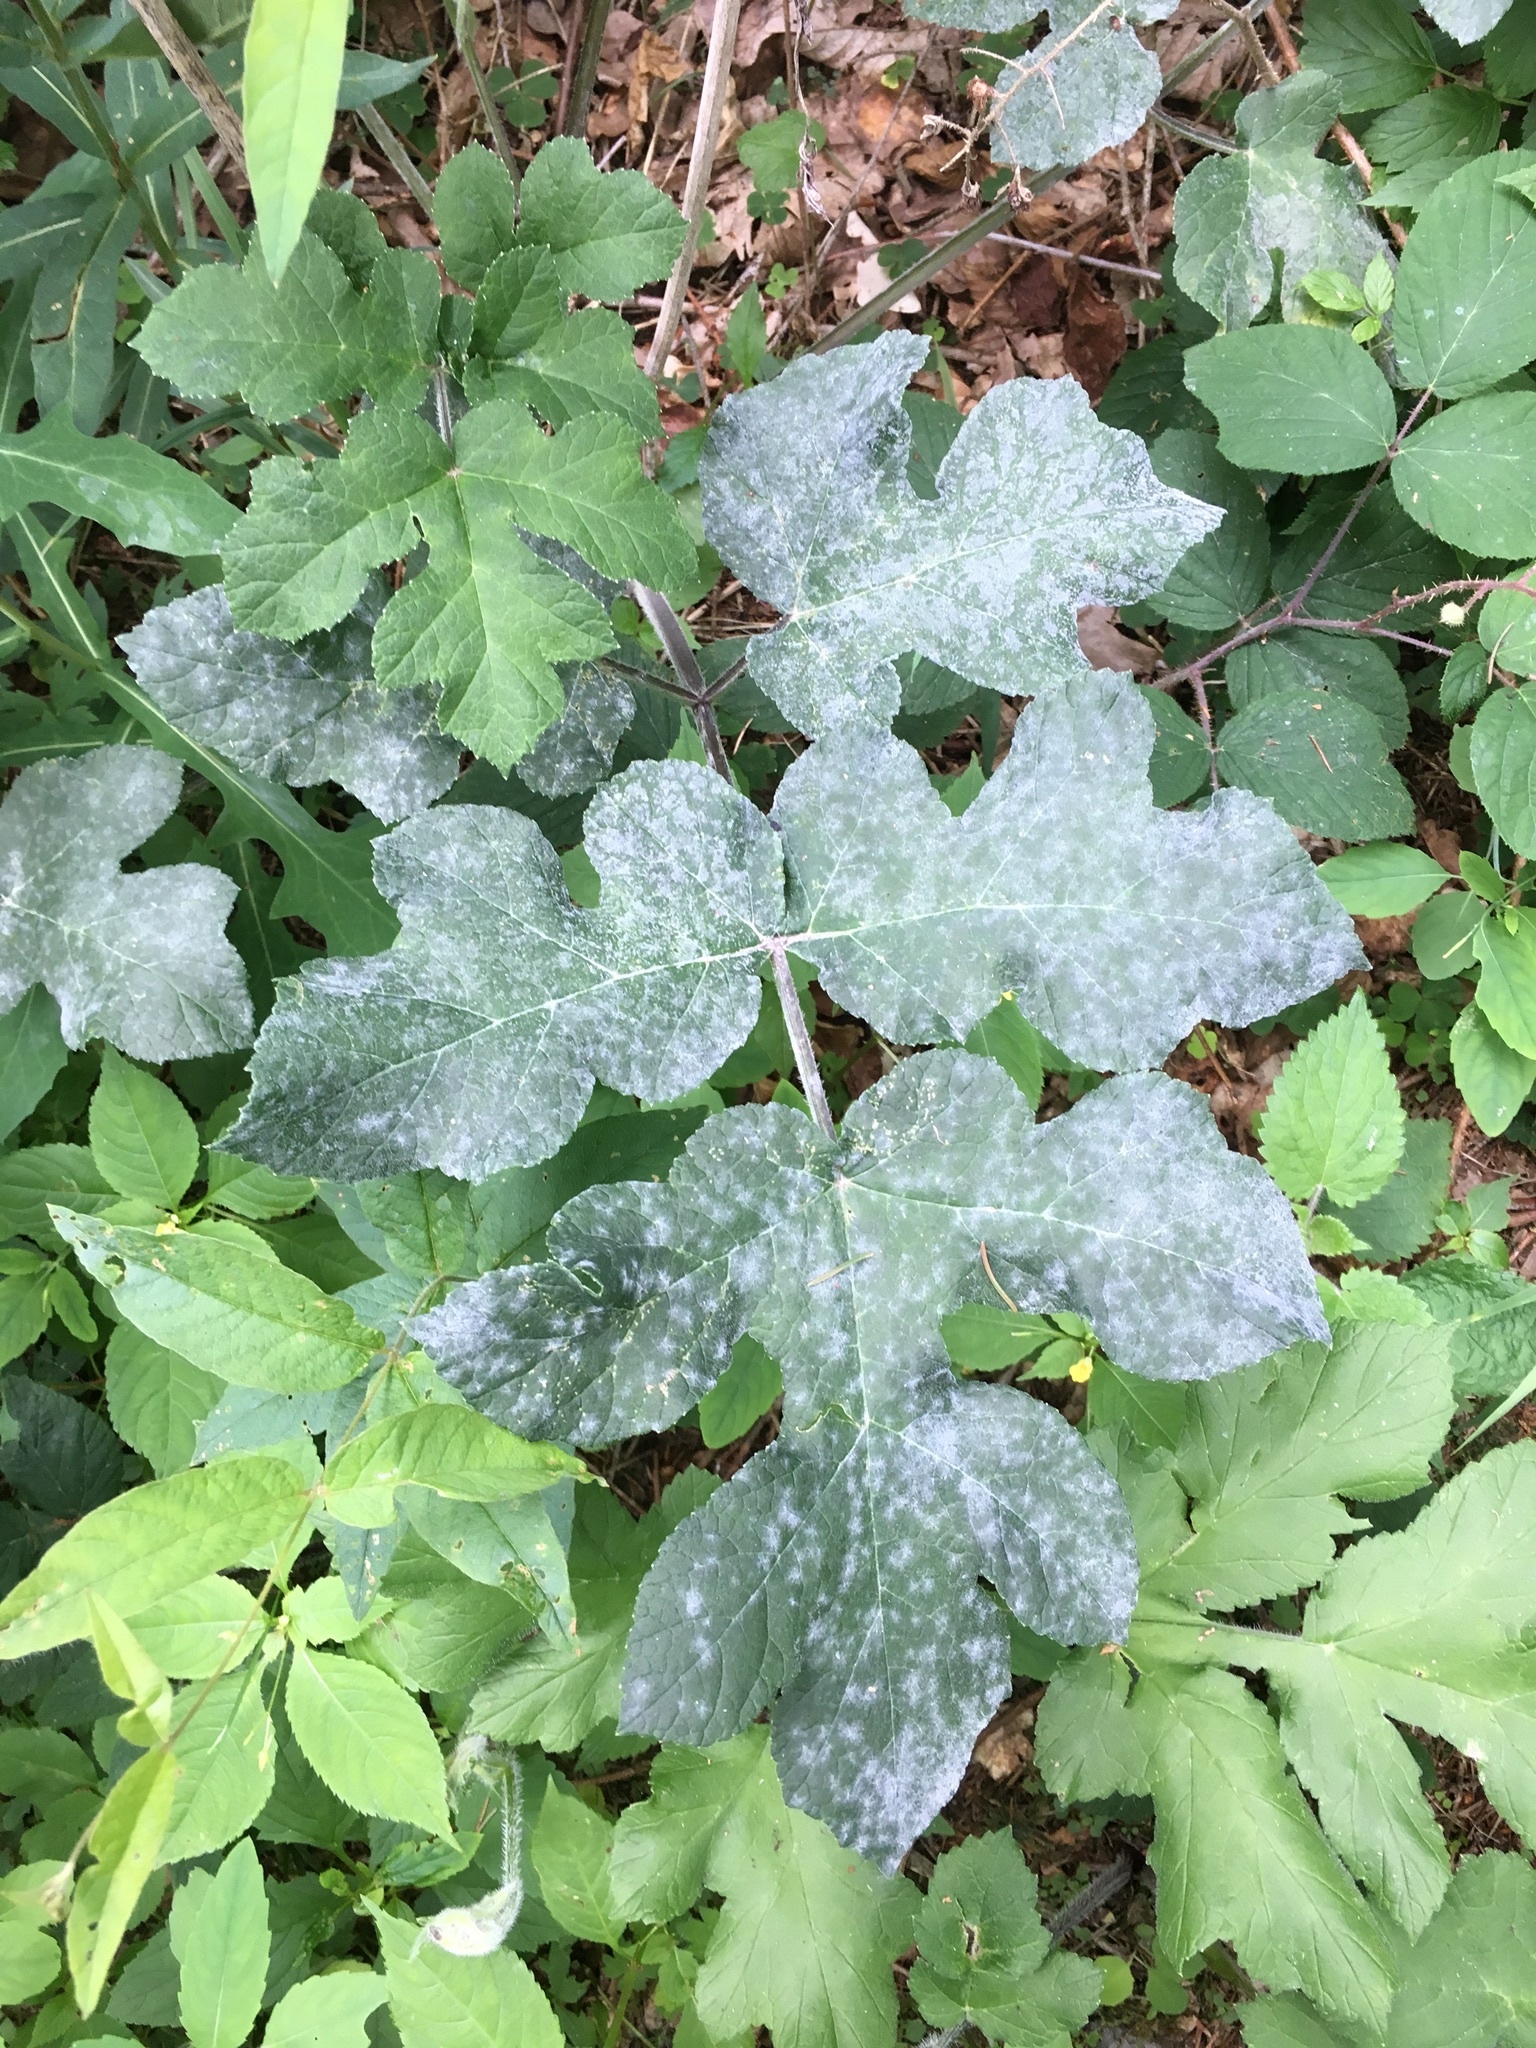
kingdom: Plantae
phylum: Tracheophyta
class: Magnoliopsida
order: Apiales
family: Apiaceae
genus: Heracleum
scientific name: Heracleum sphondylium
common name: Hogweed
